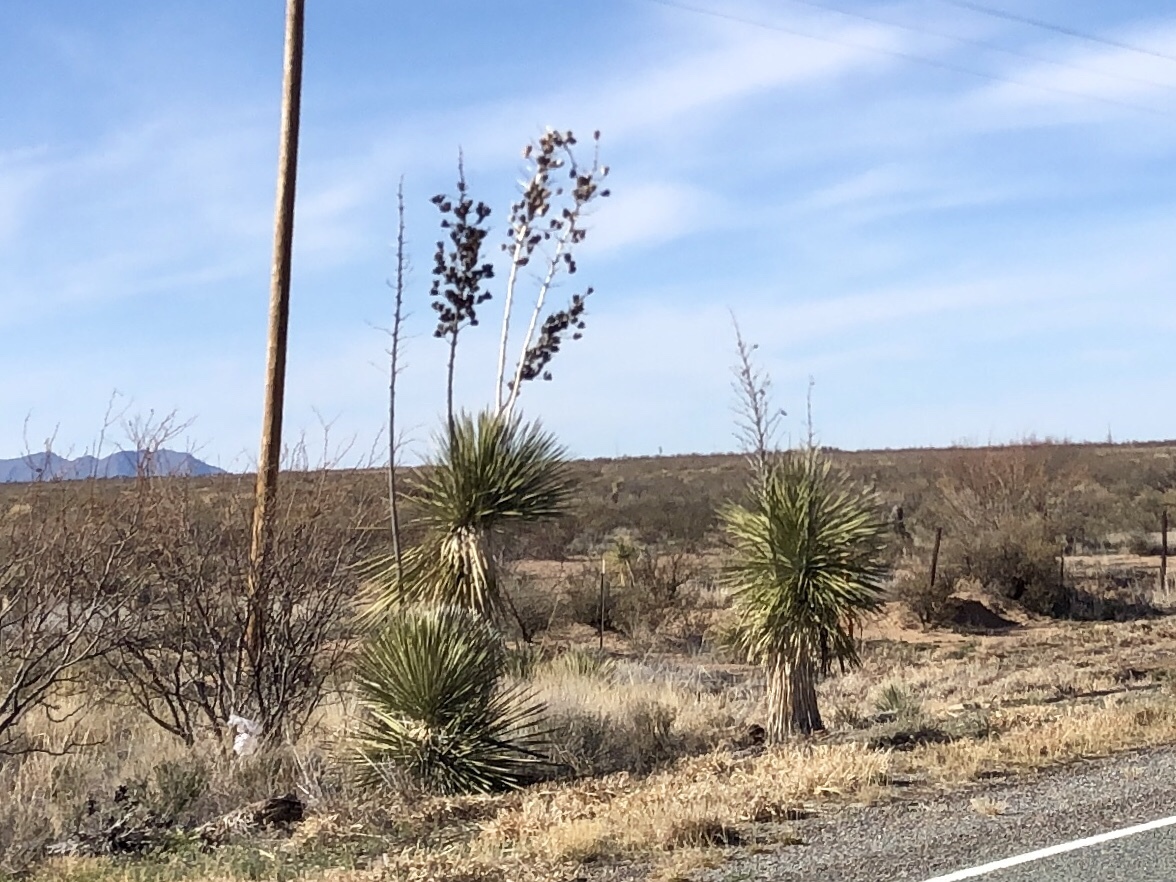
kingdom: Plantae
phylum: Tracheophyta
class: Liliopsida
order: Asparagales
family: Asparagaceae
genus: Yucca
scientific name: Yucca elata
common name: Palmella
